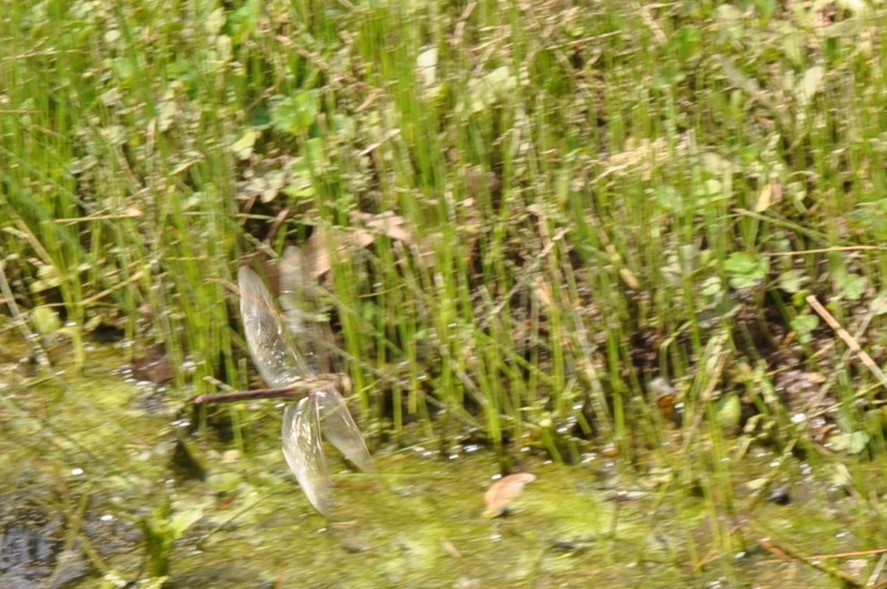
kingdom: Animalia
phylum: Arthropoda
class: Insecta
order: Odonata
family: Aeshnidae
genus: Anax
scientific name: Anax
